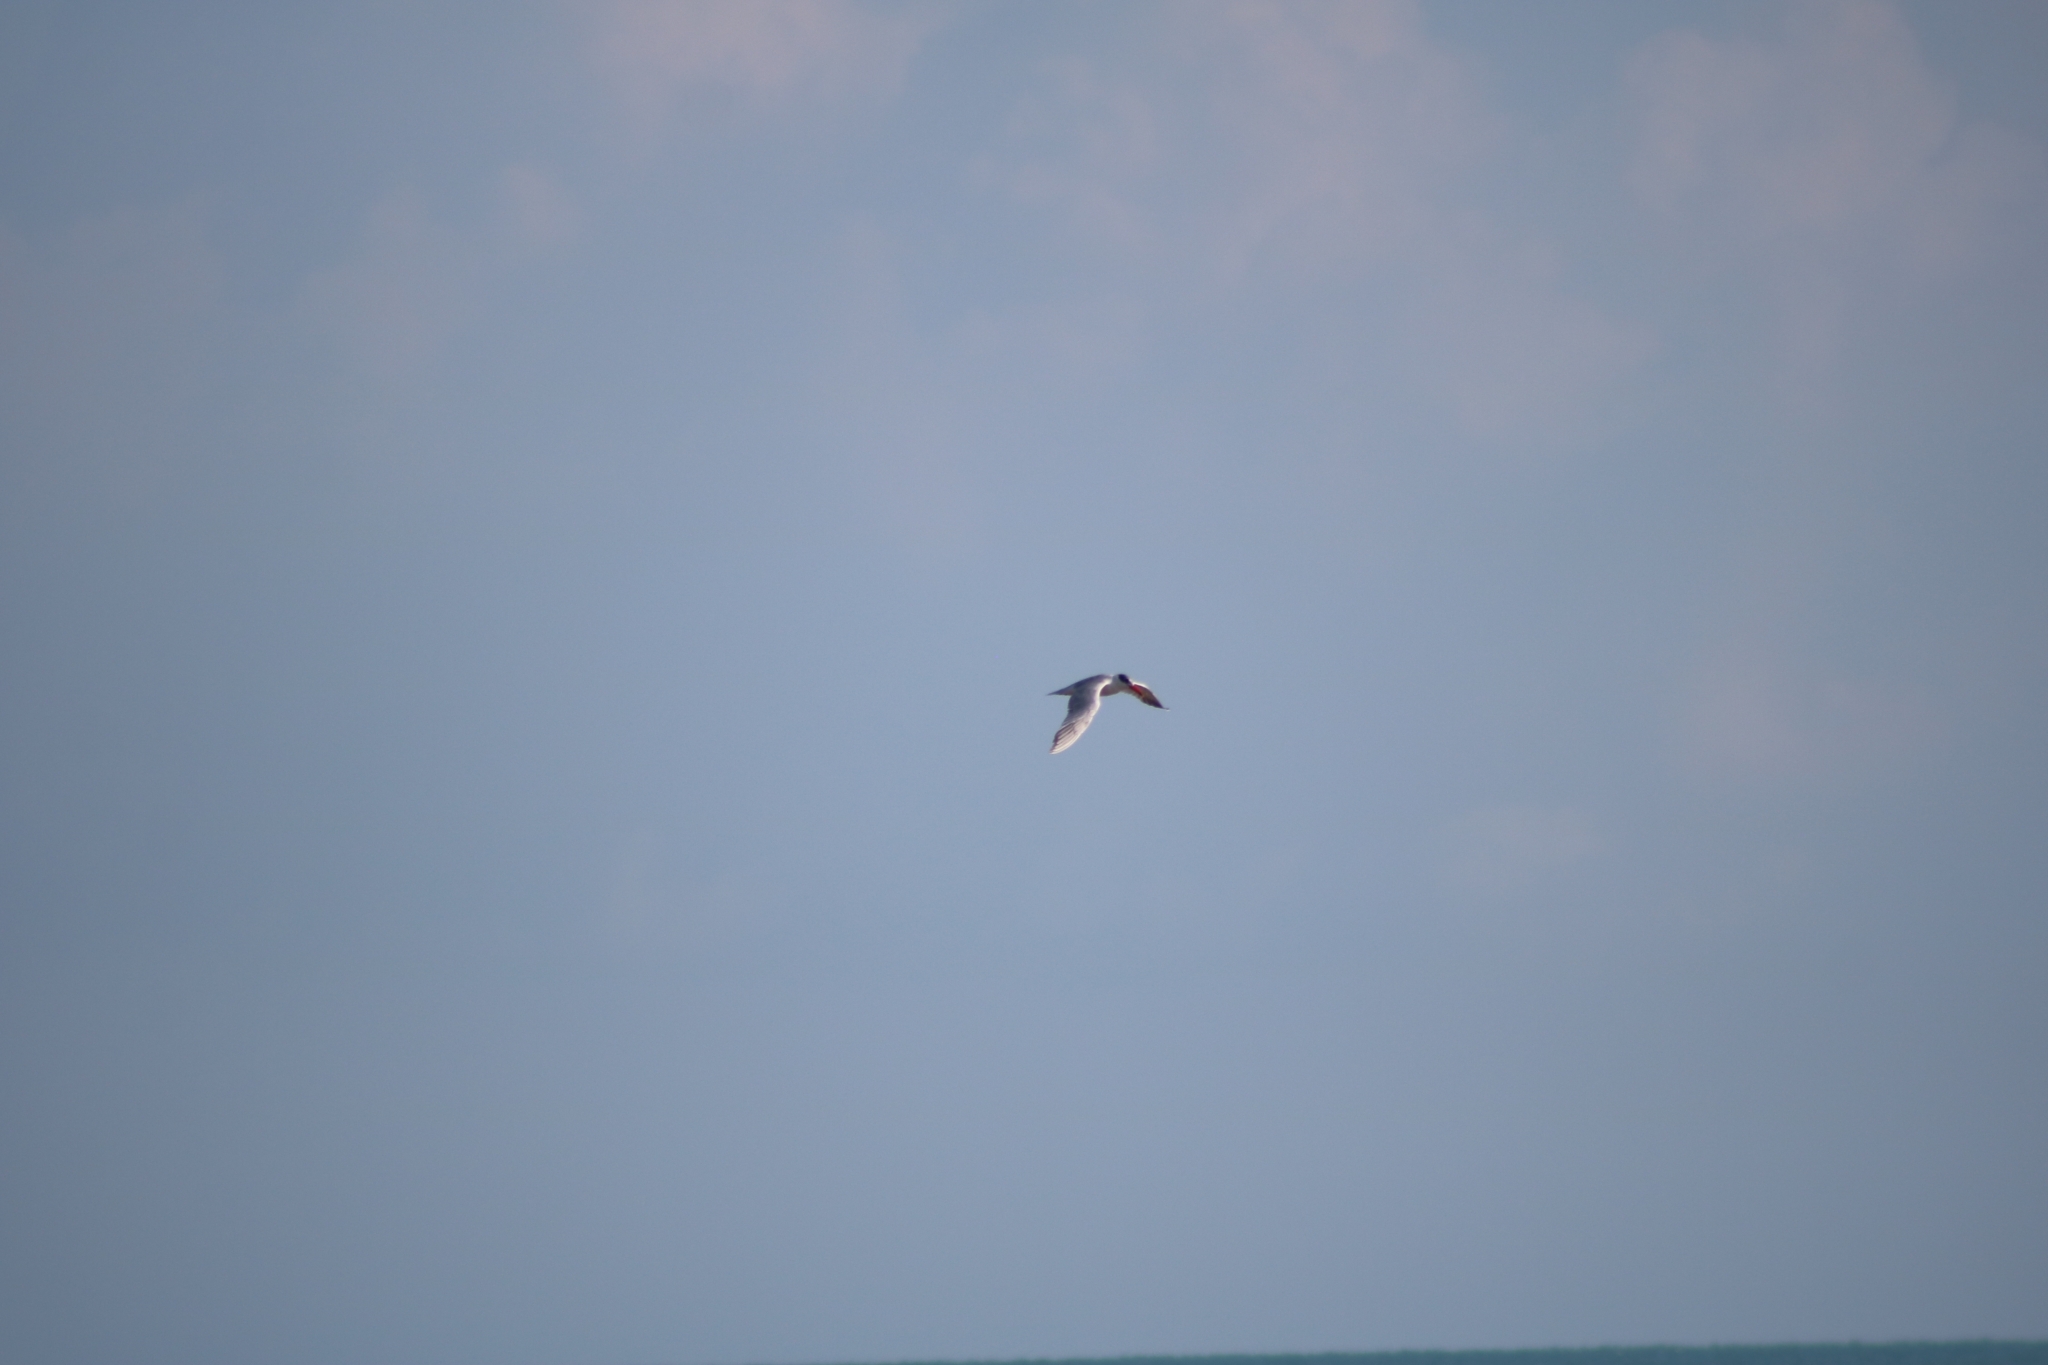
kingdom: Animalia
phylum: Chordata
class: Aves
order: Charadriiformes
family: Laridae
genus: Hydroprogne
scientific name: Hydroprogne caspia
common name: Caspian tern
